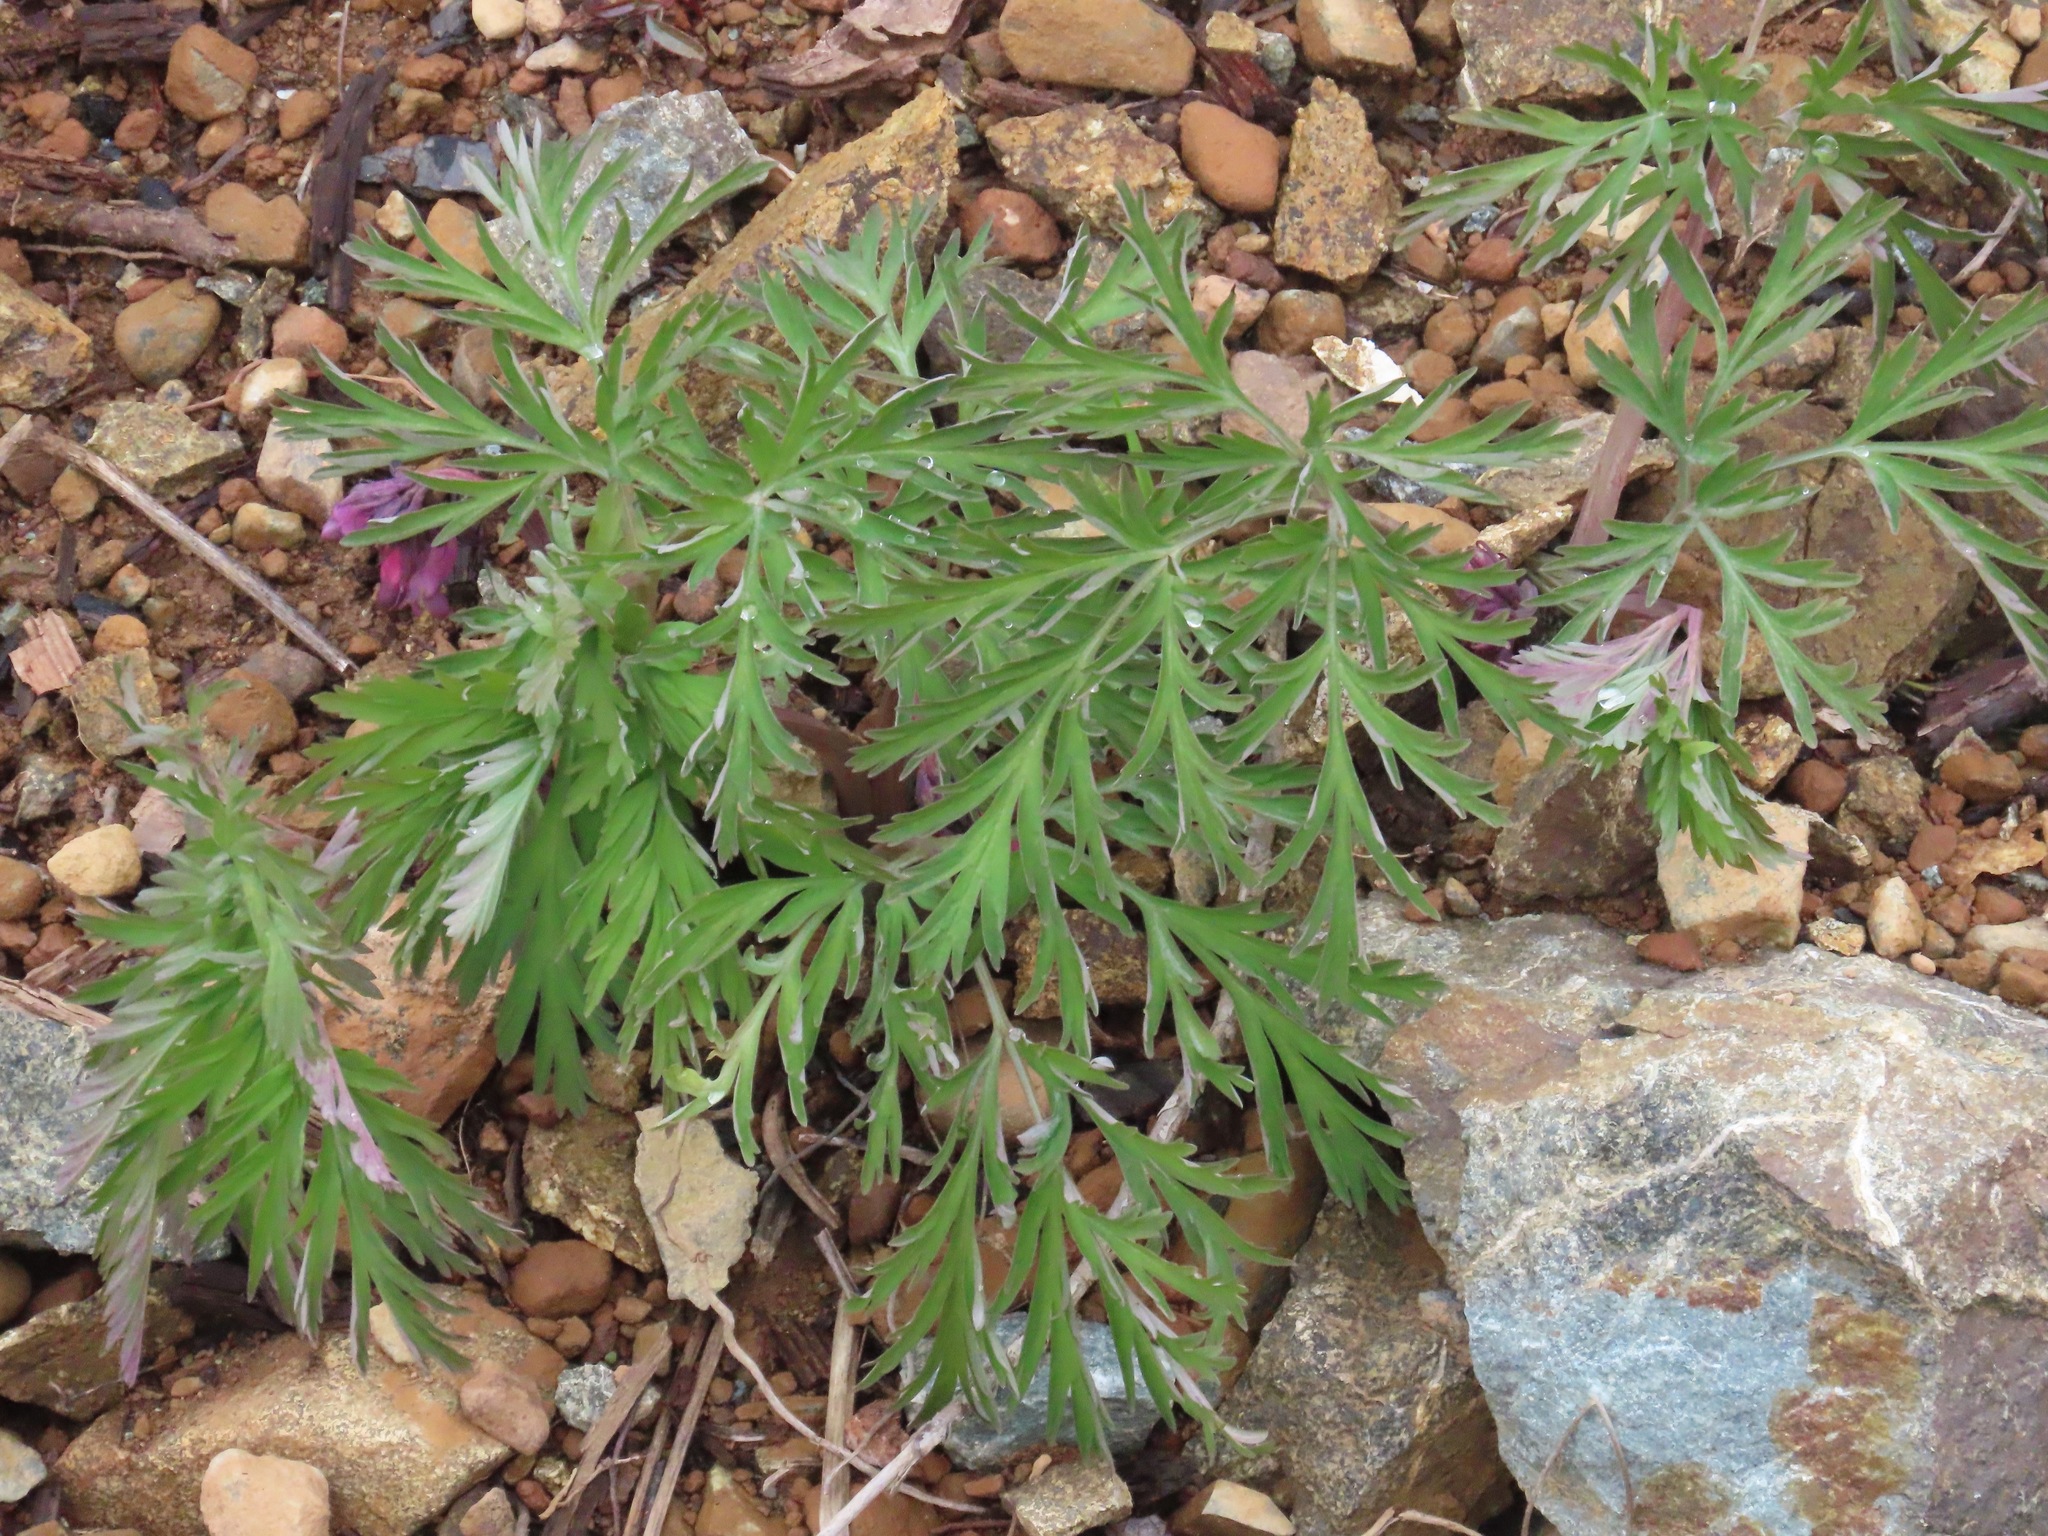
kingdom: Plantae
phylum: Tracheophyta
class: Magnoliopsida
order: Ranunculales
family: Papaveraceae
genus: Dicentra
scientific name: Dicentra formosa
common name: Bleeding-heart
